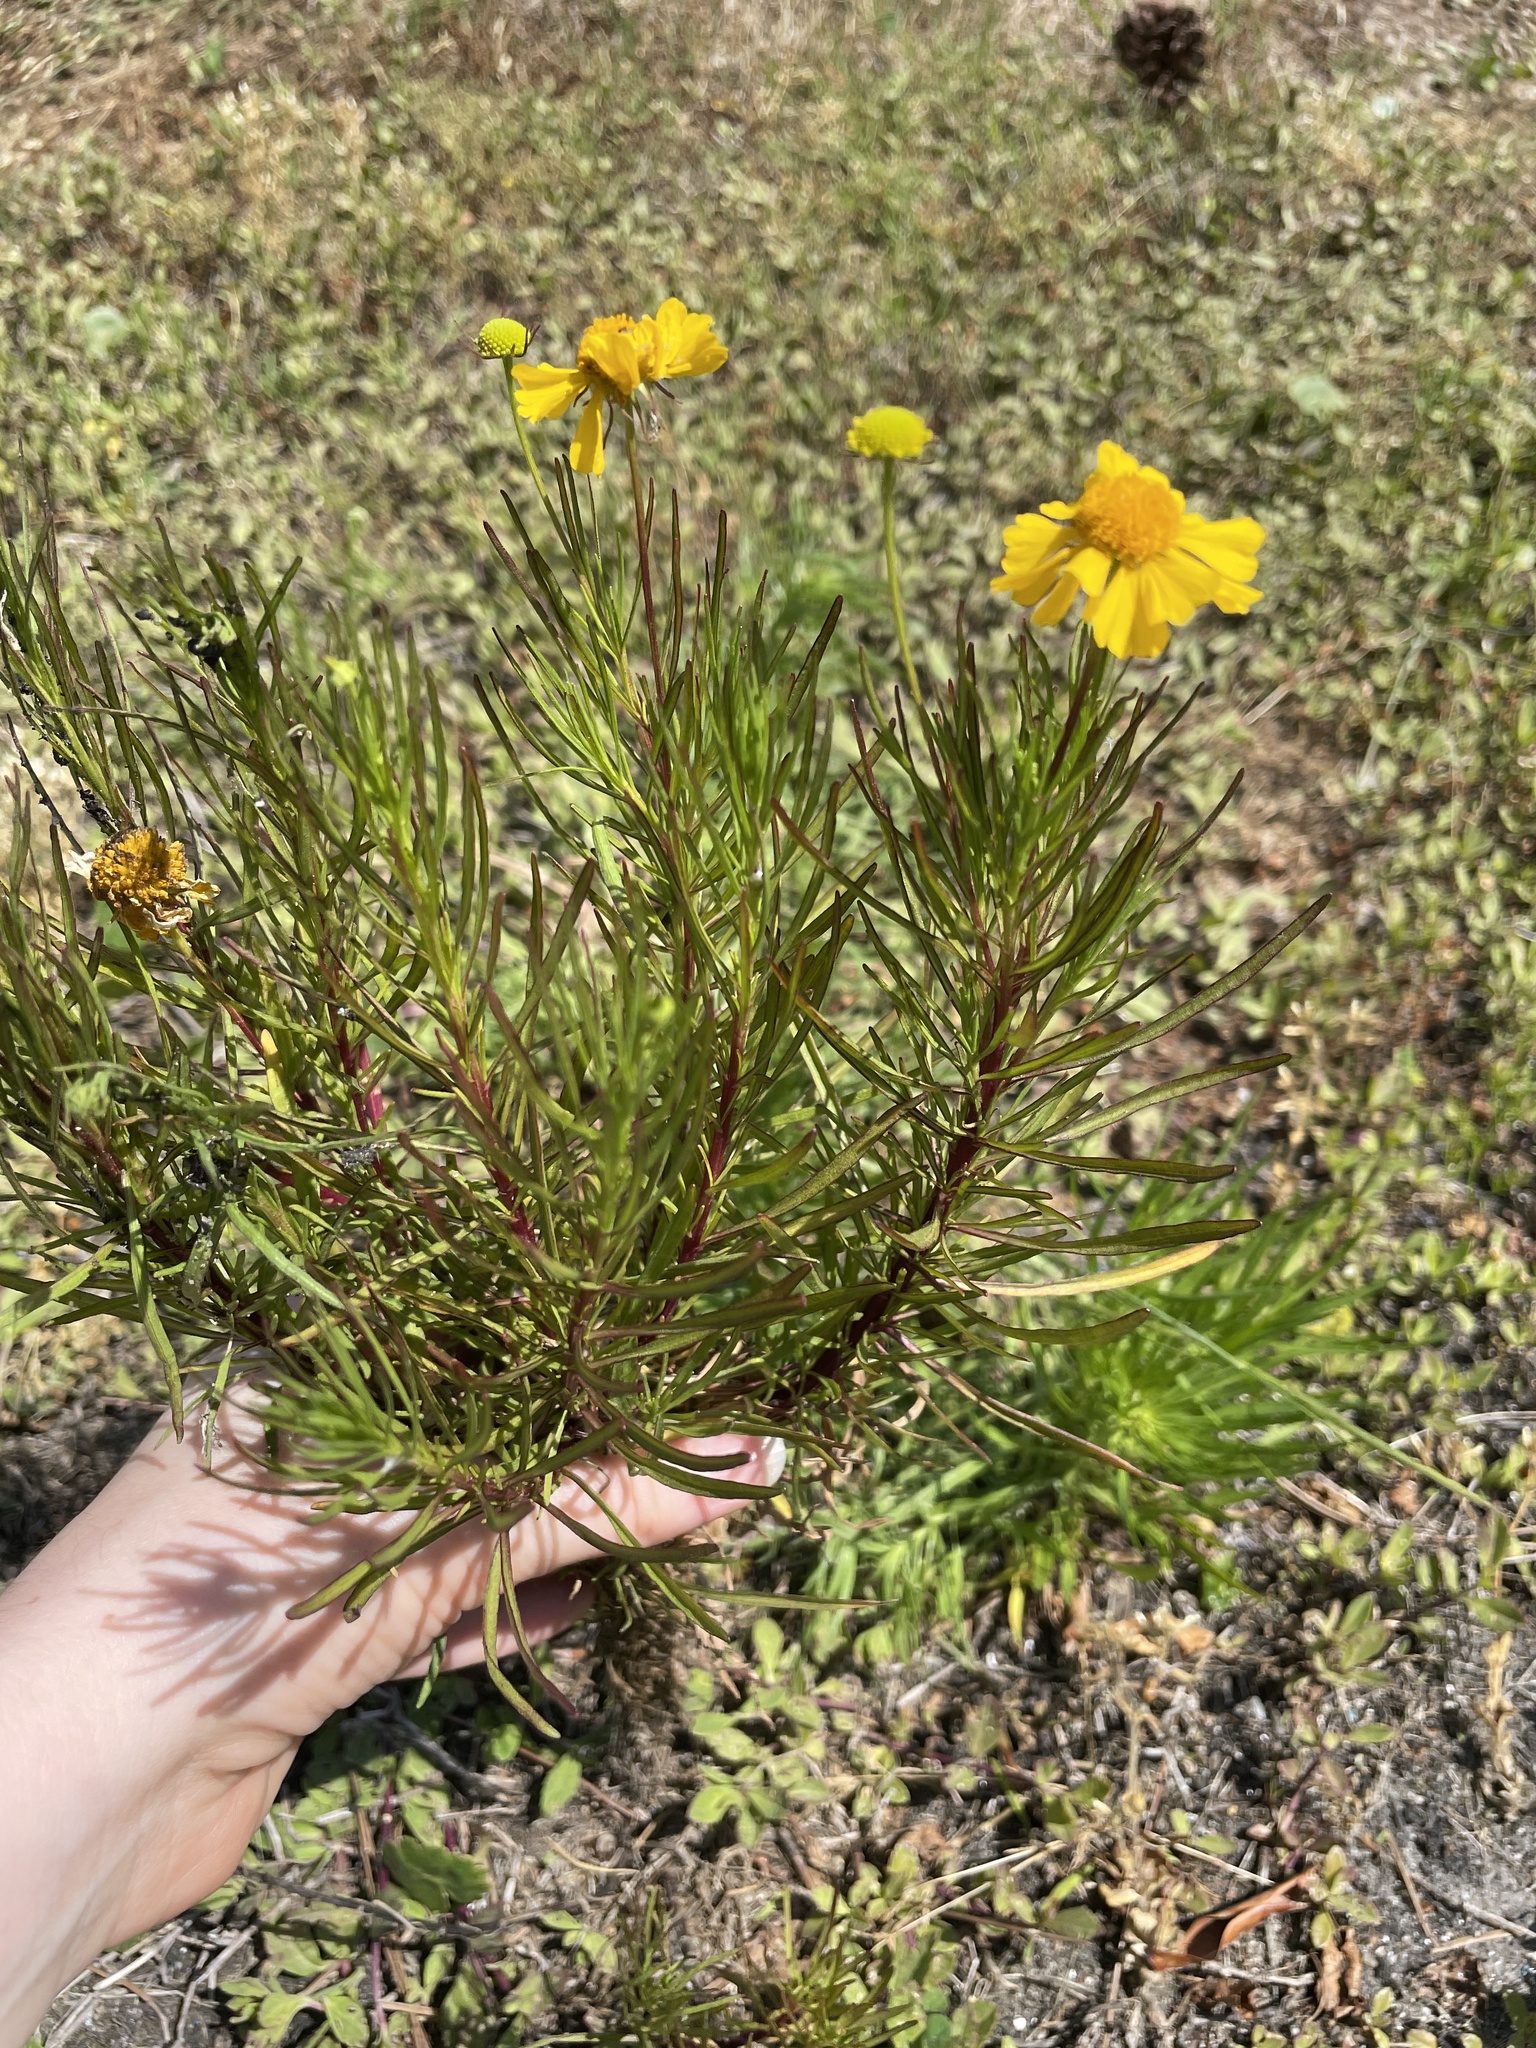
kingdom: Plantae
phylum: Tracheophyta
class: Magnoliopsida
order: Asterales
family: Asteraceae
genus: Helenium
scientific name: Helenium amarum
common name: Bitter sneezeweed
